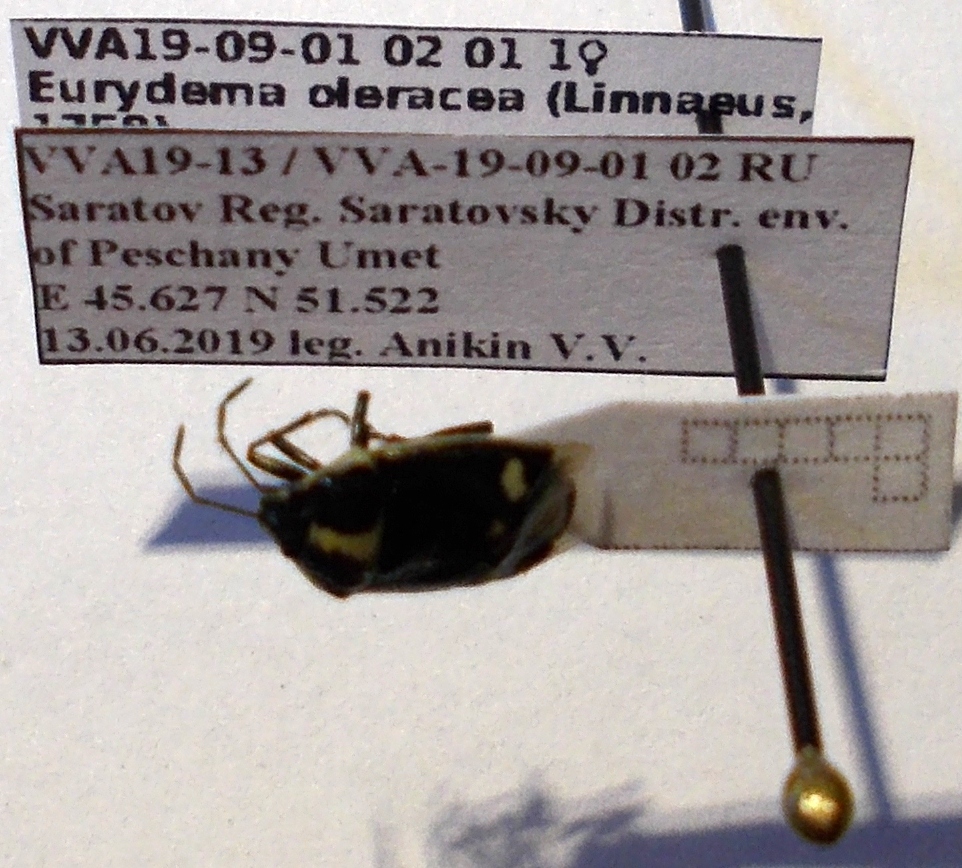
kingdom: Animalia
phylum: Arthropoda
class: Insecta
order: Hemiptera
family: Pentatomidae
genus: Eurydema
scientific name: Eurydema oleracea
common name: Cabbage bug
